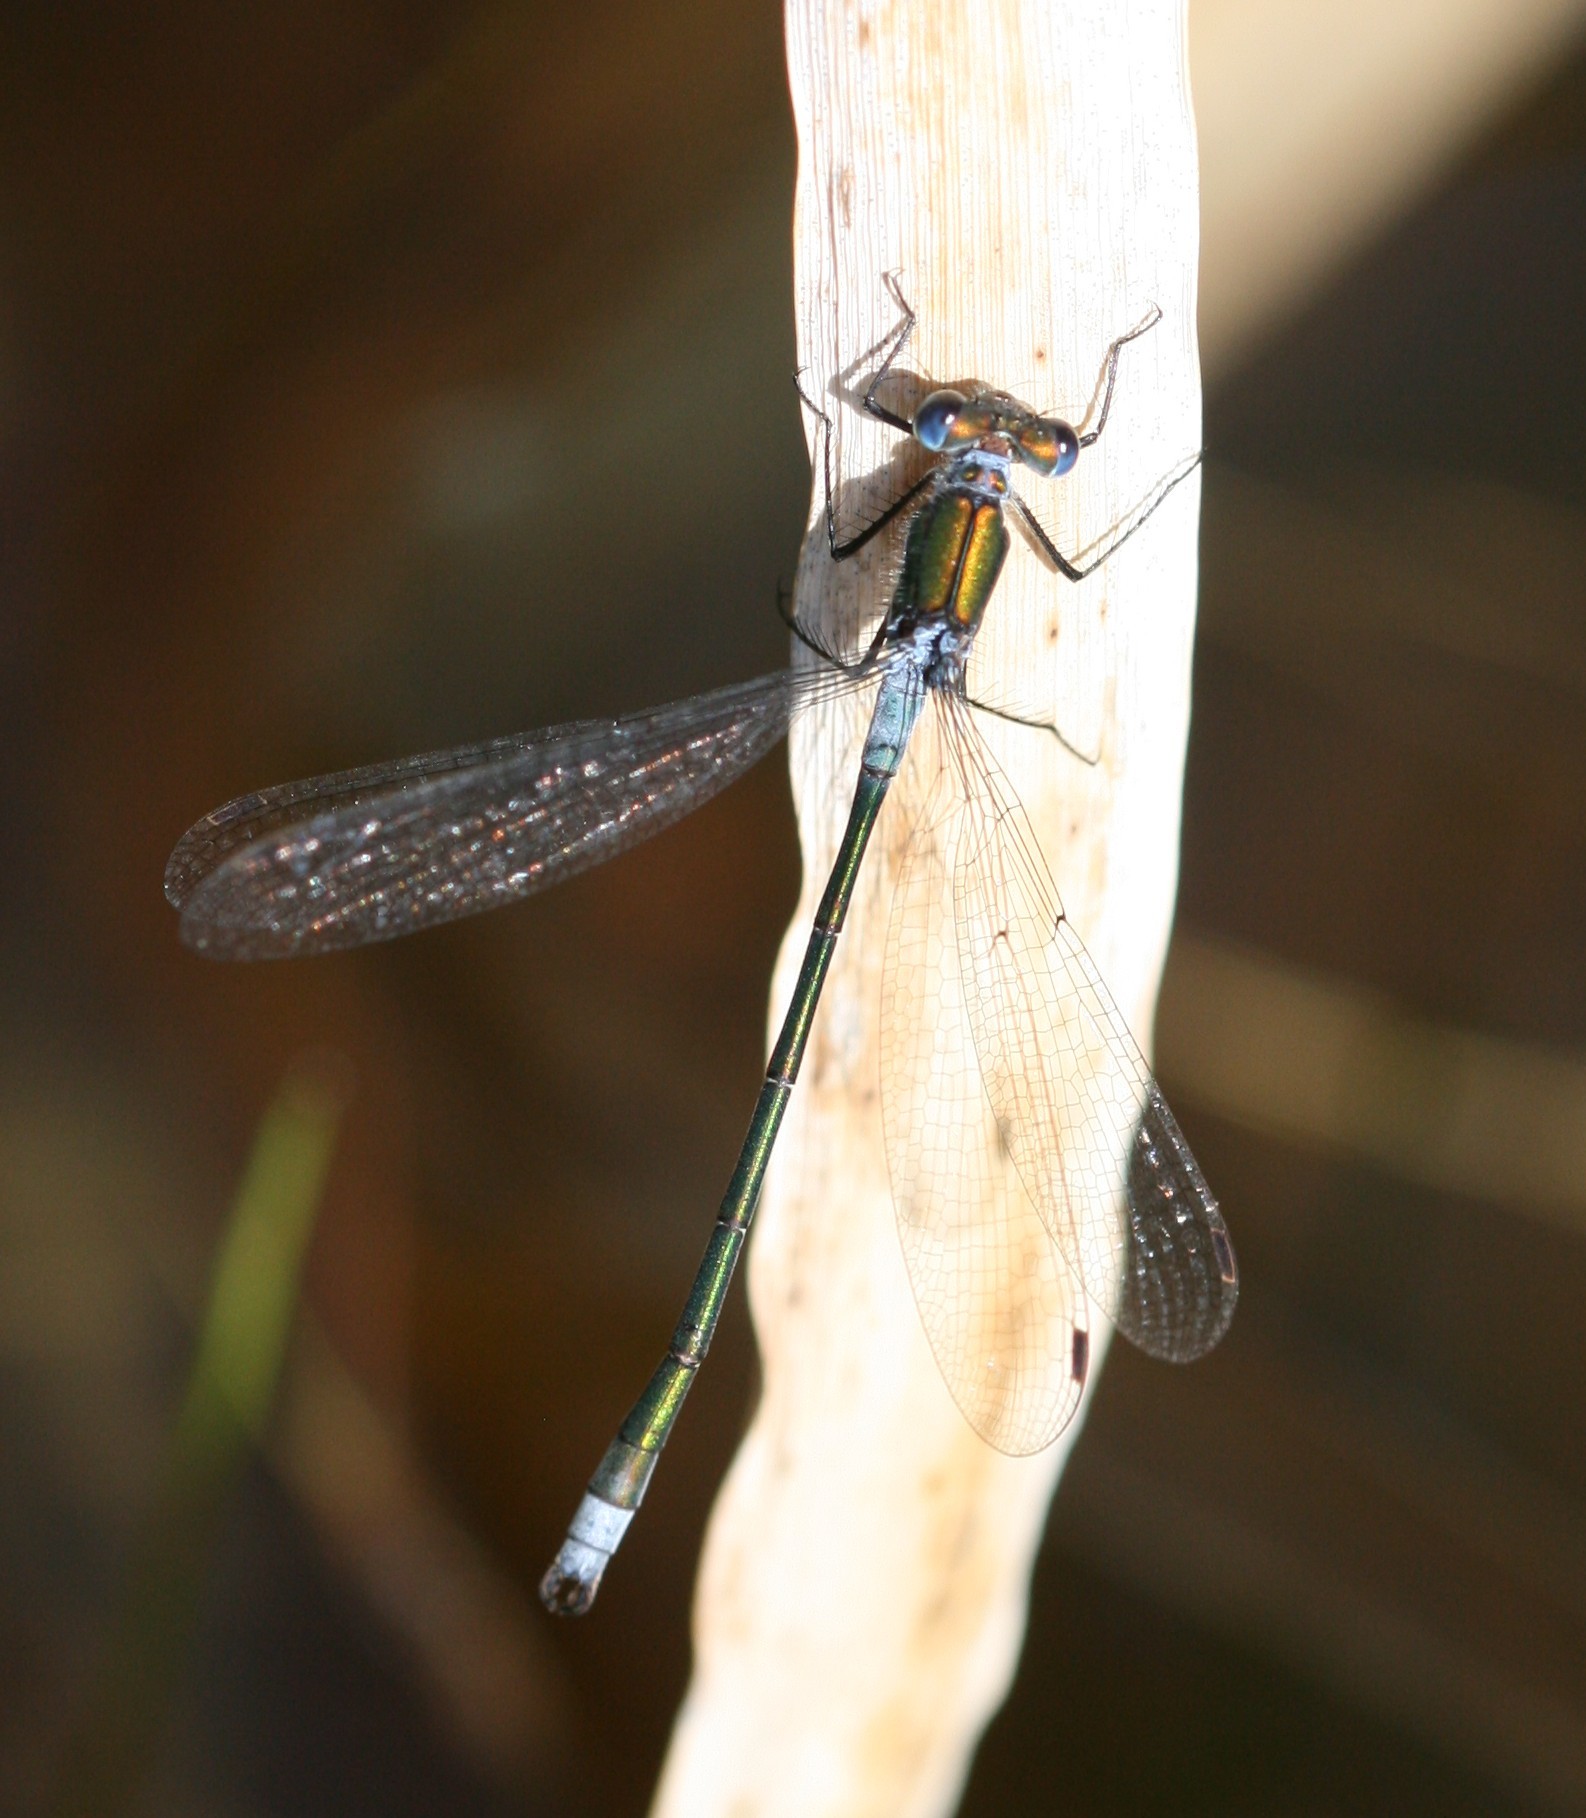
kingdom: Animalia
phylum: Arthropoda
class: Insecta
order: Odonata
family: Lestidae
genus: Lestes
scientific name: Lestes sponsa
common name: Common spreadwing
